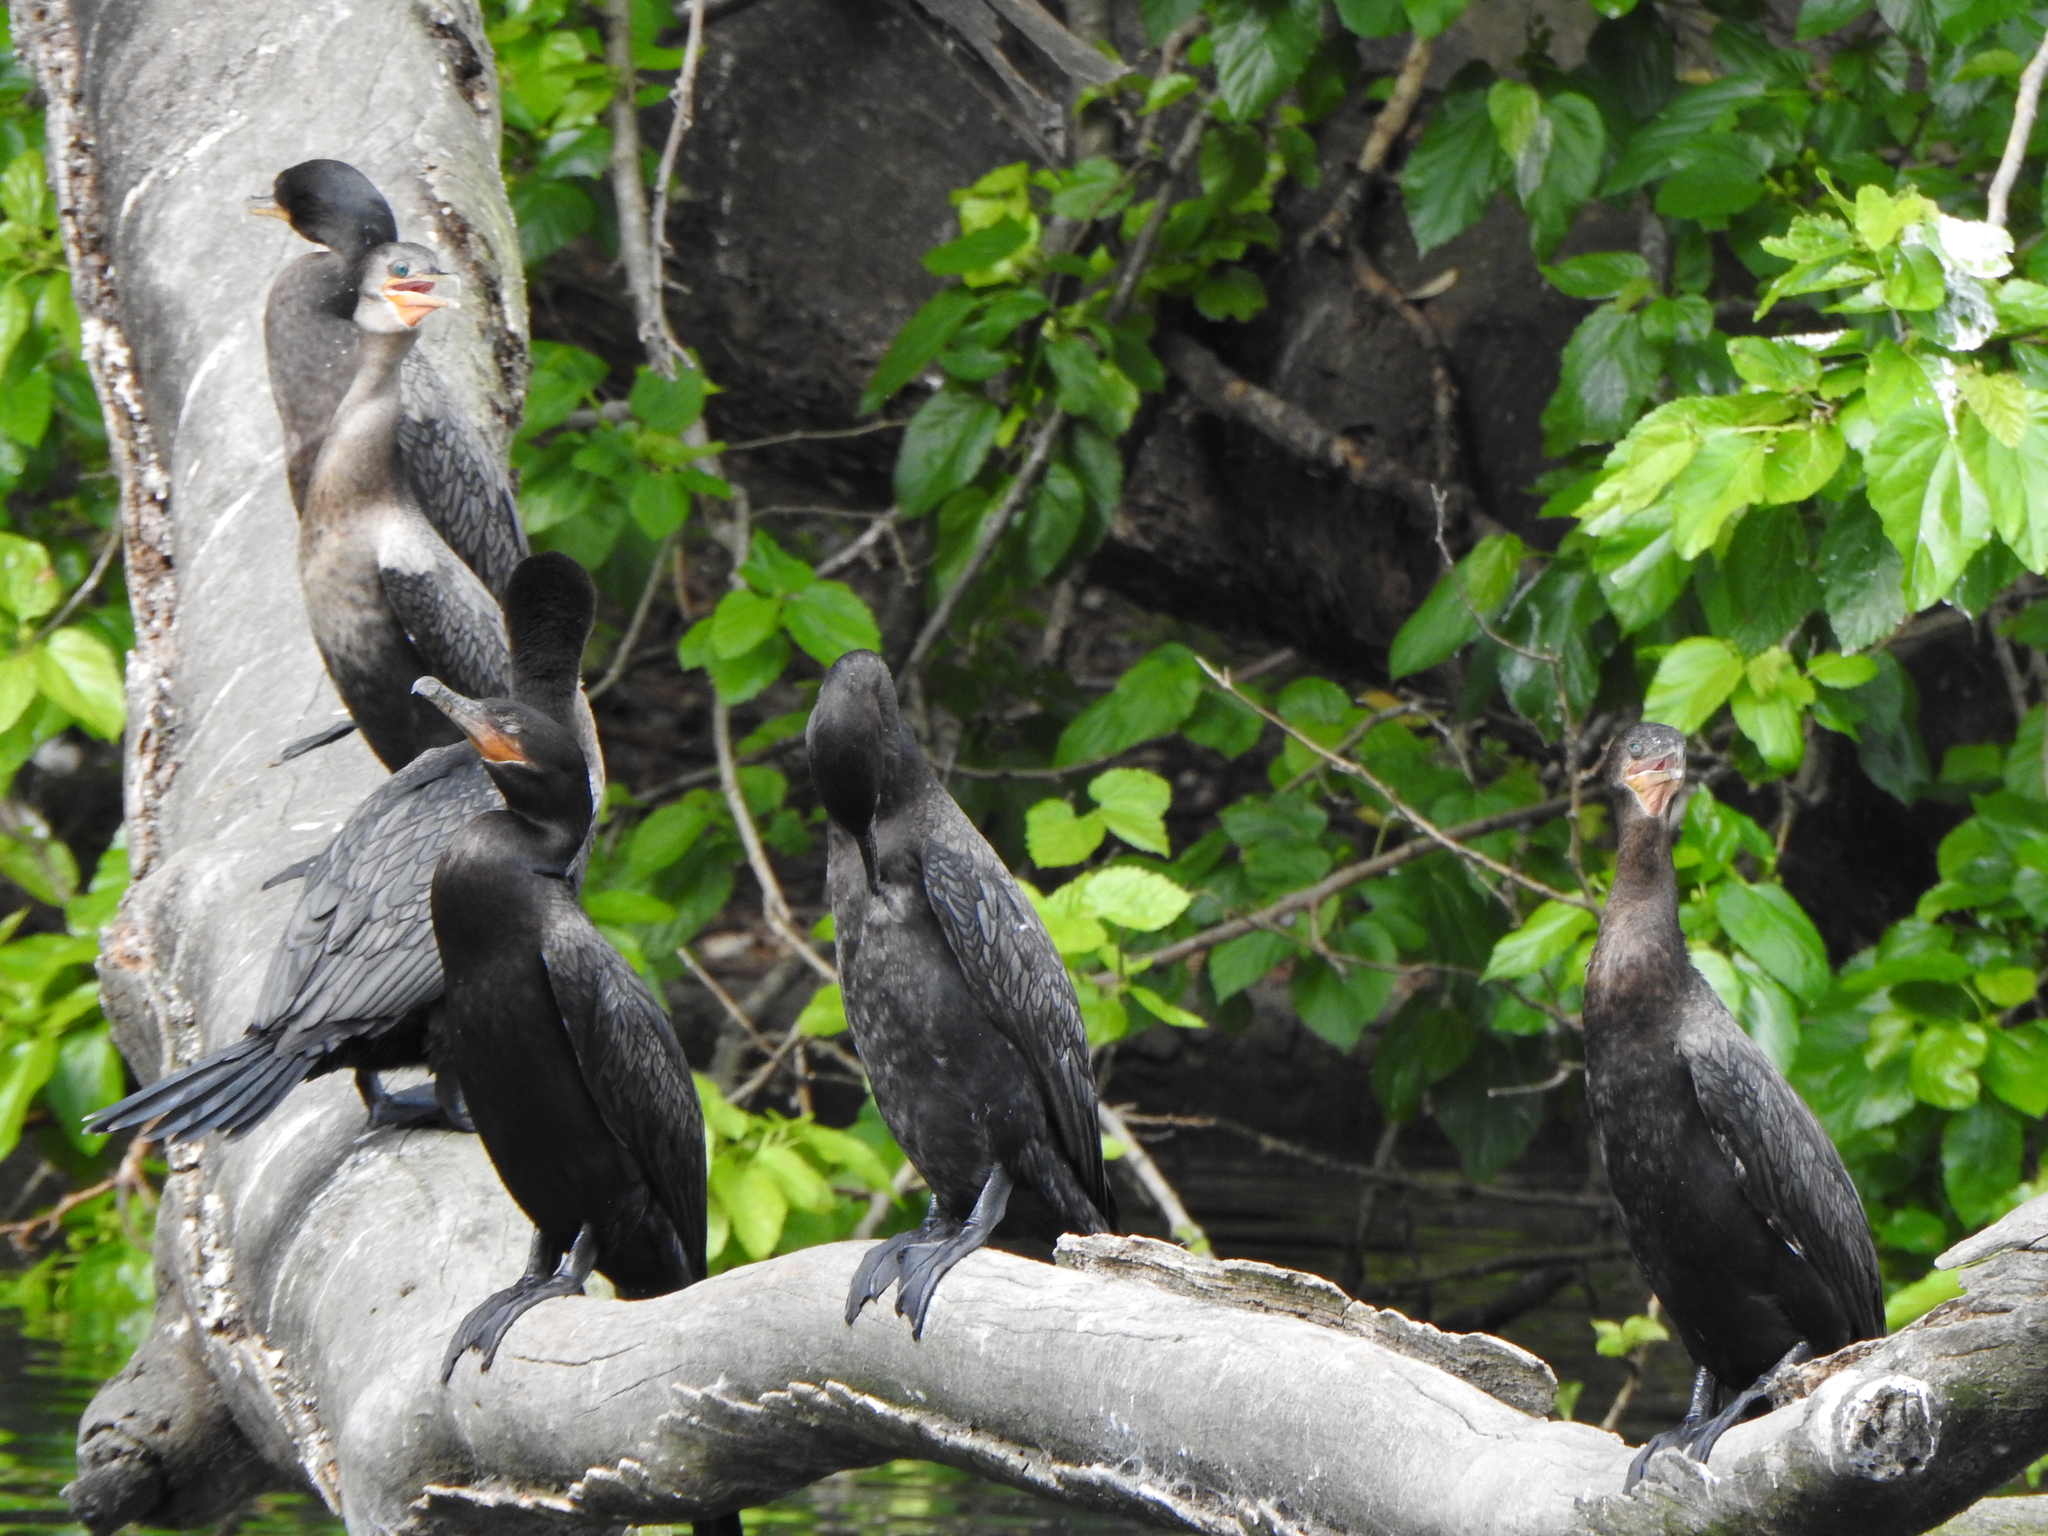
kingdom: Animalia
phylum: Chordata
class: Aves
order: Suliformes
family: Phalacrocoracidae
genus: Phalacrocorax
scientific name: Phalacrocorax brasilianus
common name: Neotropic cormorant
